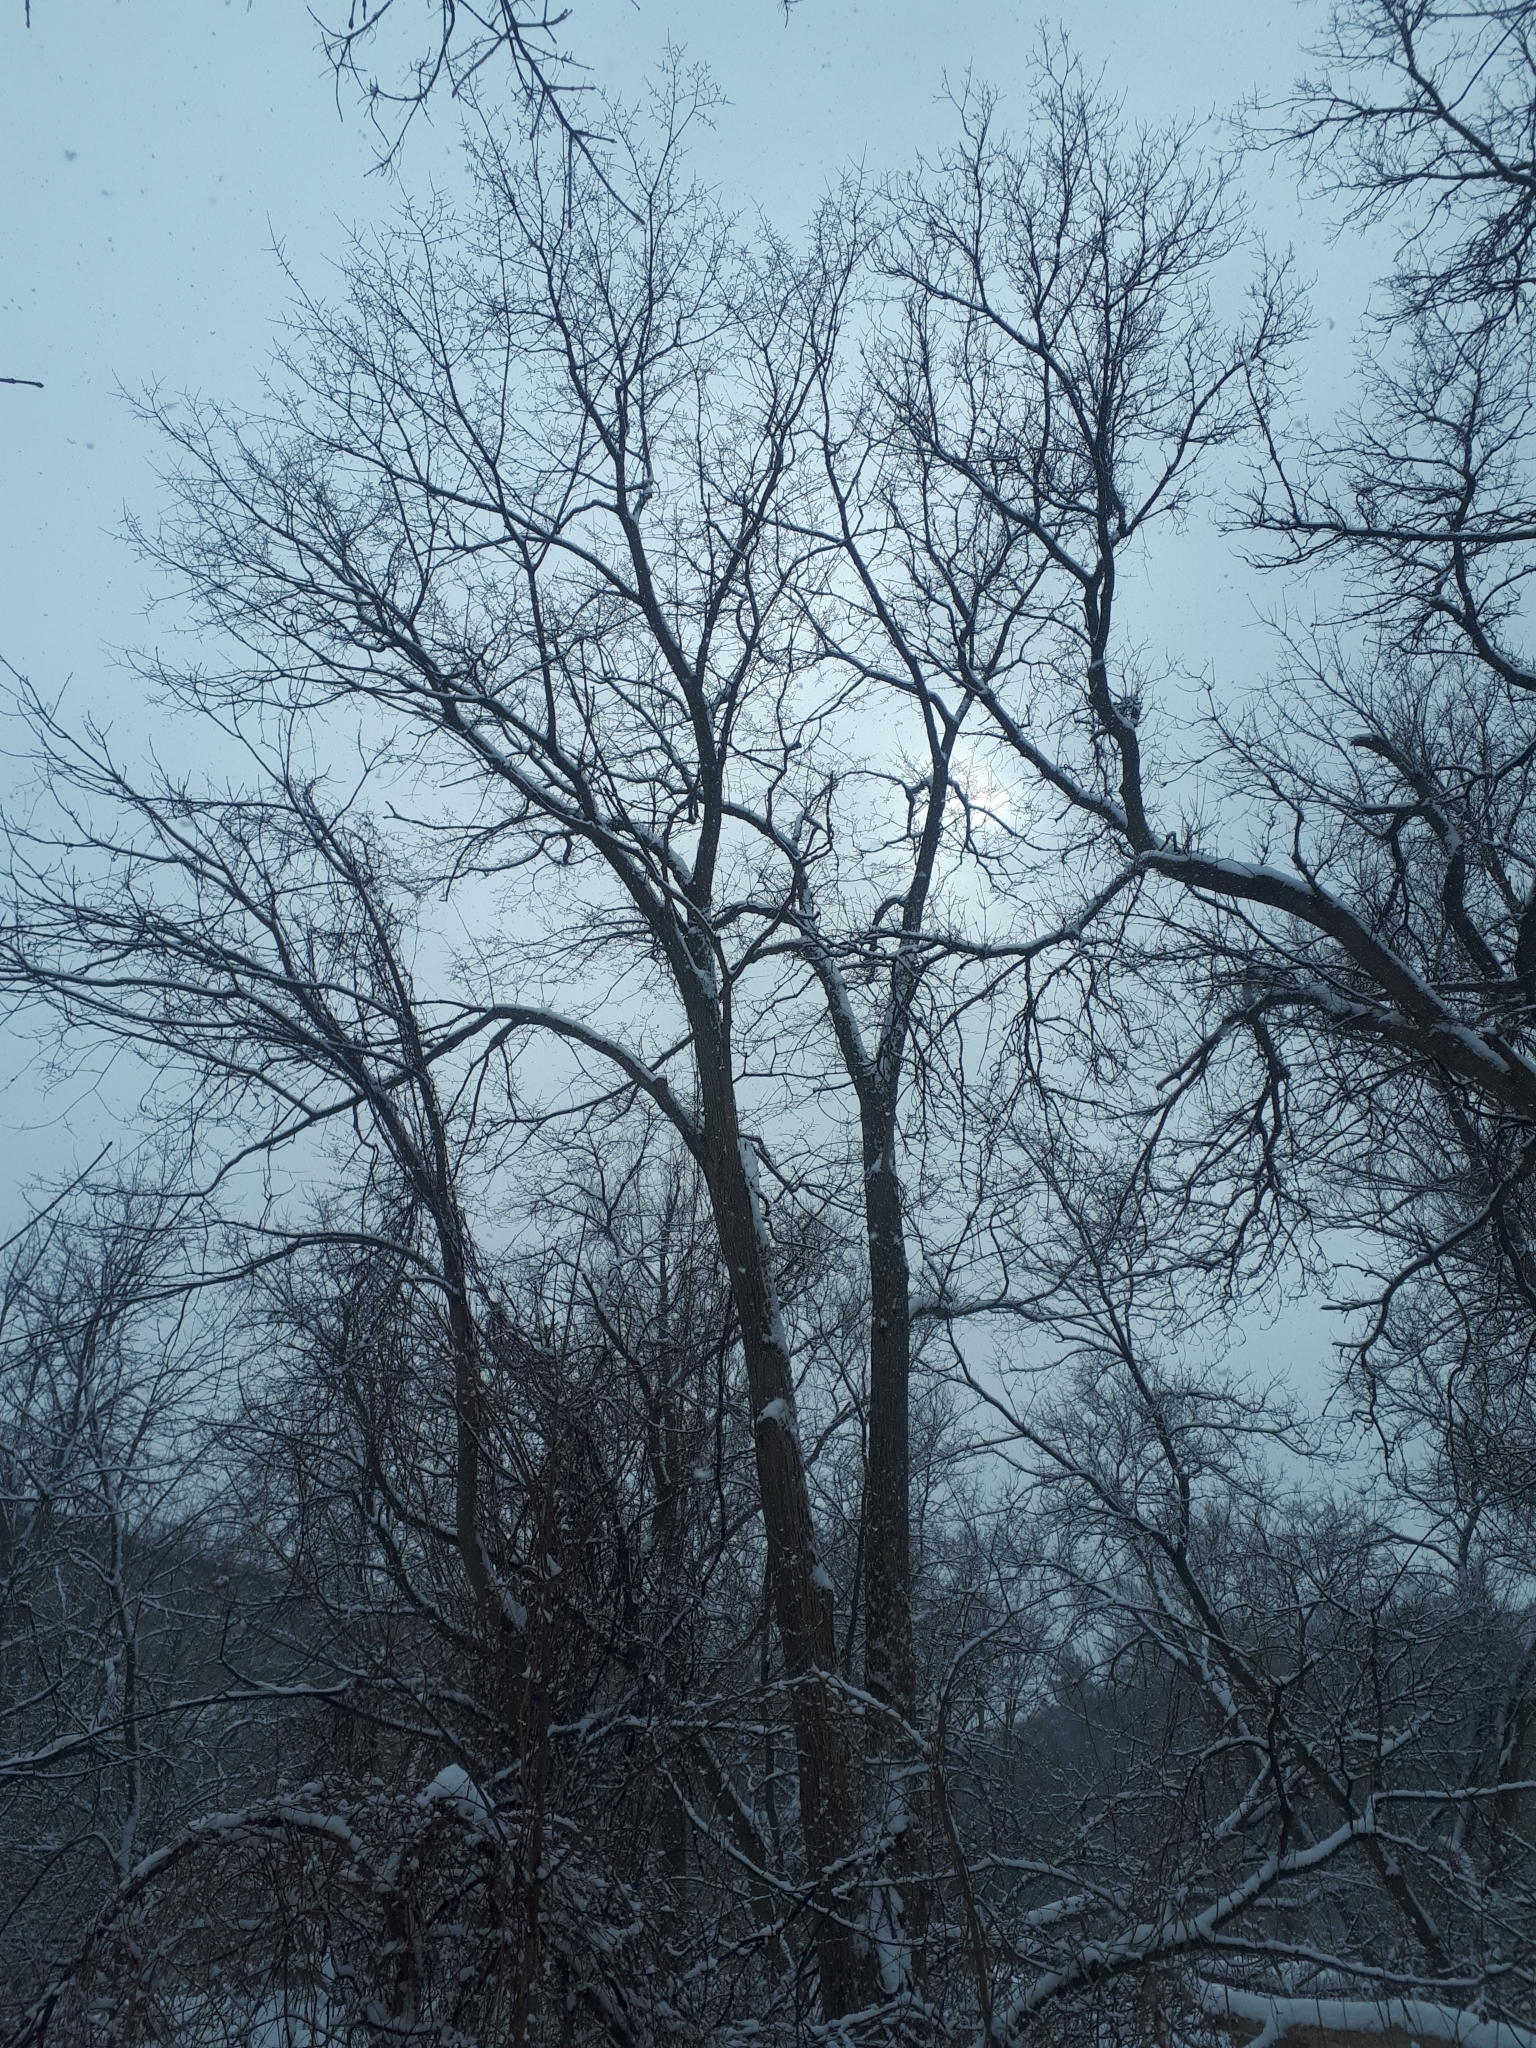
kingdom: Plantae
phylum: Tracheophyta
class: Magnoliopsida
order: Rosales
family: Ulmaceae
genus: Ulmus
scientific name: Ulmus rubra
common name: Slippery elm
